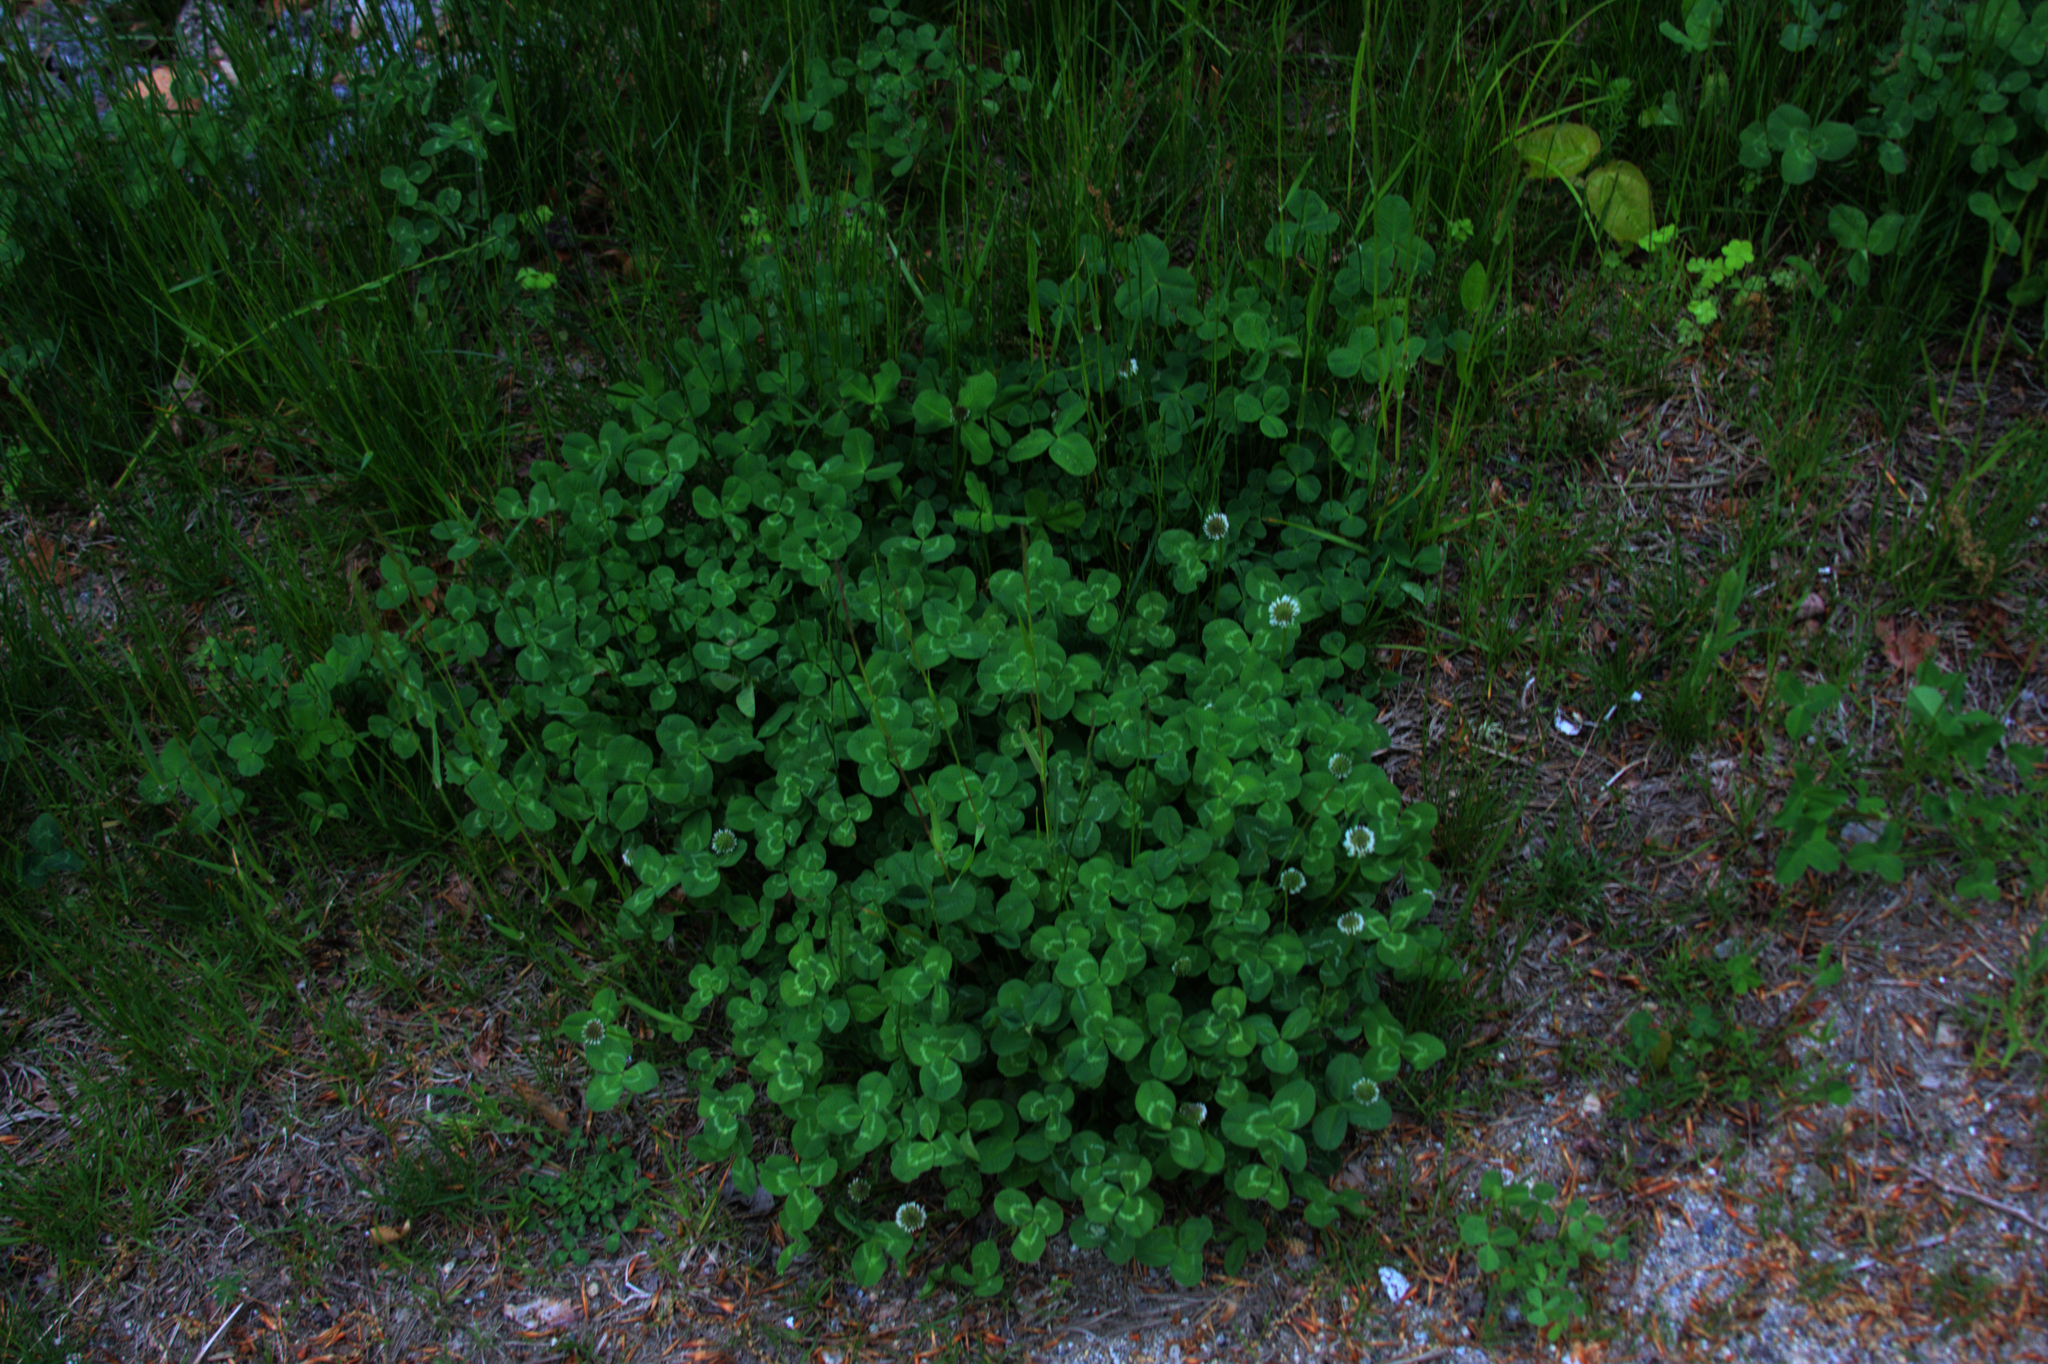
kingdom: Plantae
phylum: Tracheophyta
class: Magnoliopsida
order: Fabales
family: Fabaceae
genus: Trifolium
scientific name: Trifolium repens
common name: White clover
